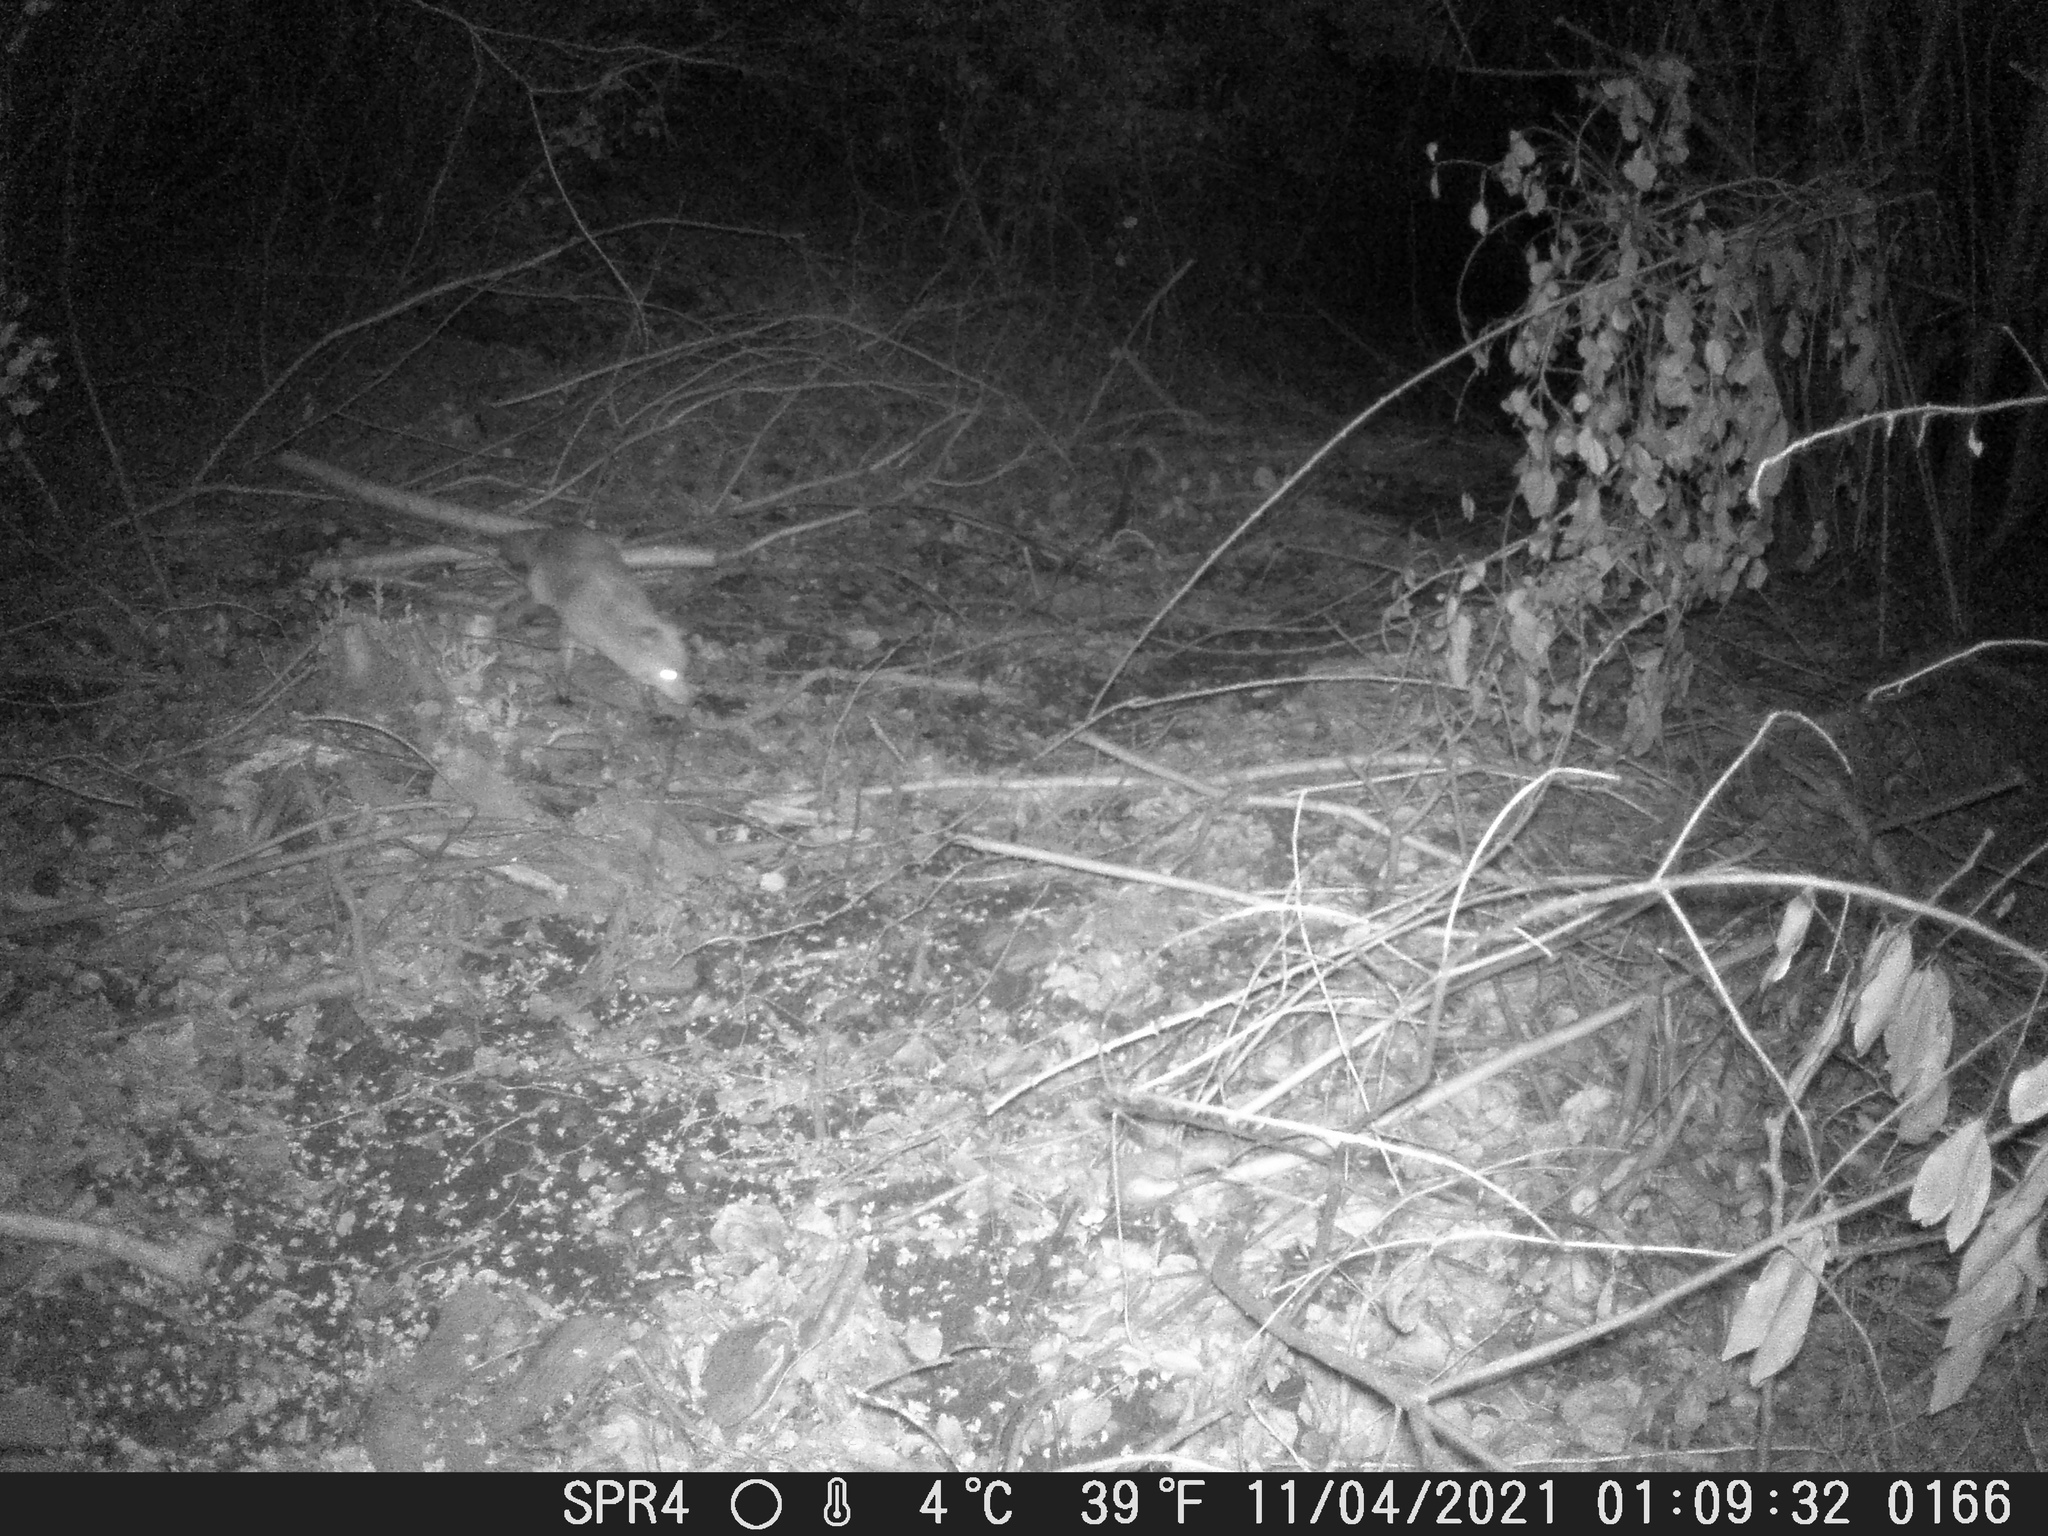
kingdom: Animalia
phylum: Chordata
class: Mammalia
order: Carnivora
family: Canidae
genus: Vulpes
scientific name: Vulpes vulpes
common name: Red fox
